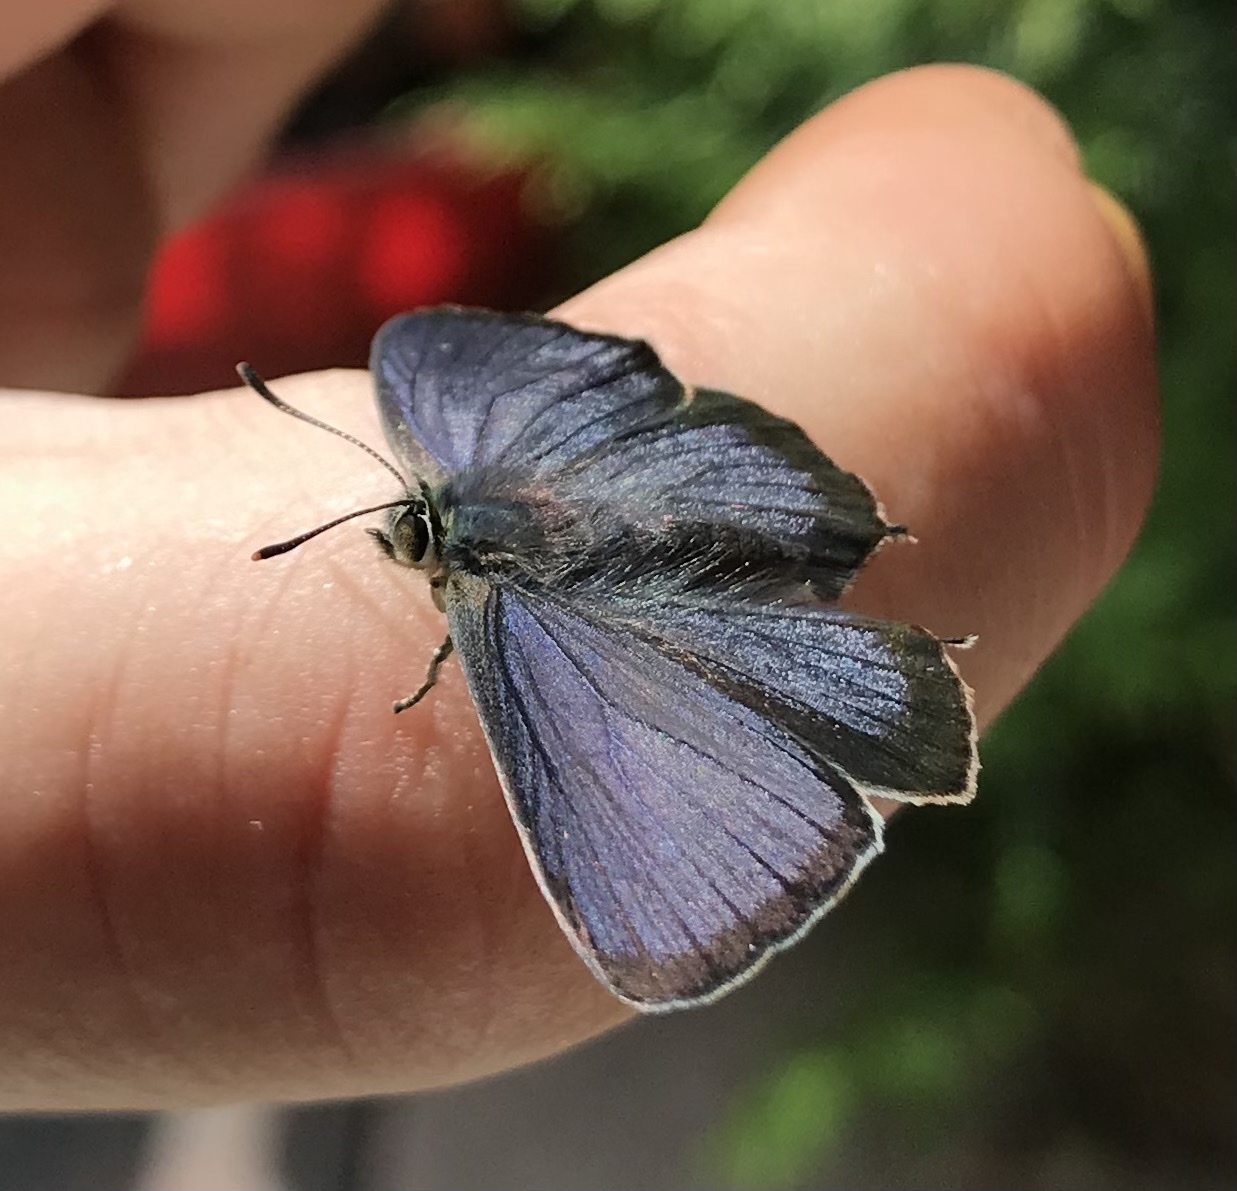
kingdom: Animalia
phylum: Arthropoda
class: Insecta
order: Lepidoptera
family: Lycaenidae
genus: Quercusia
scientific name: Quercusia quercus
